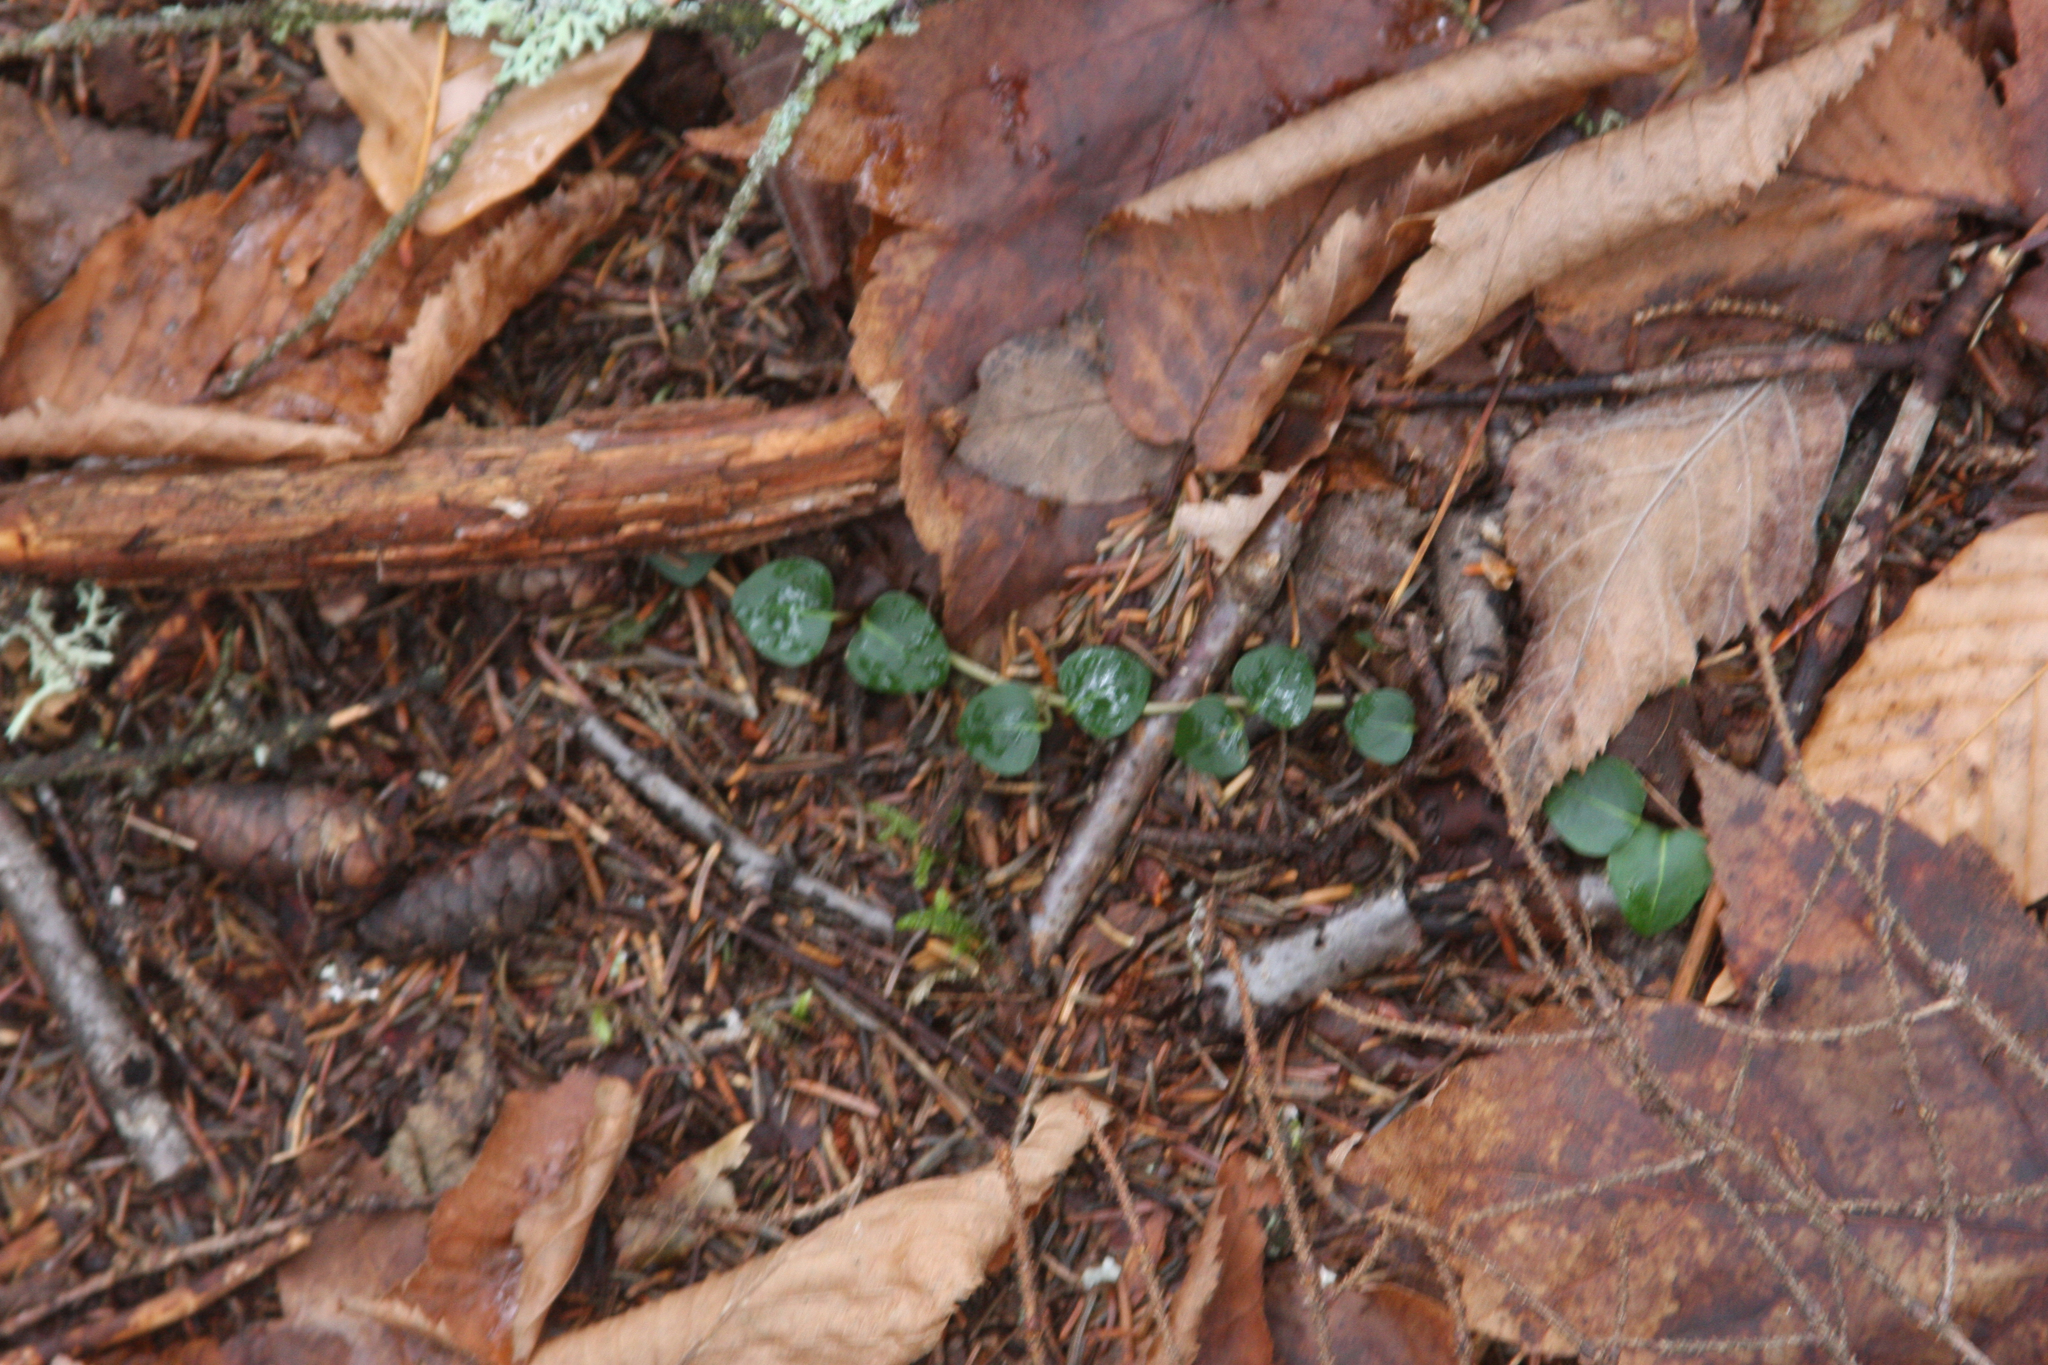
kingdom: Plantae
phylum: Tracheophyta
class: Magnoliopsida
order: Gentianales
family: Rubiaceae
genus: Mitchella
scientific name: Mitchella repens
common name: Partridge-berry
